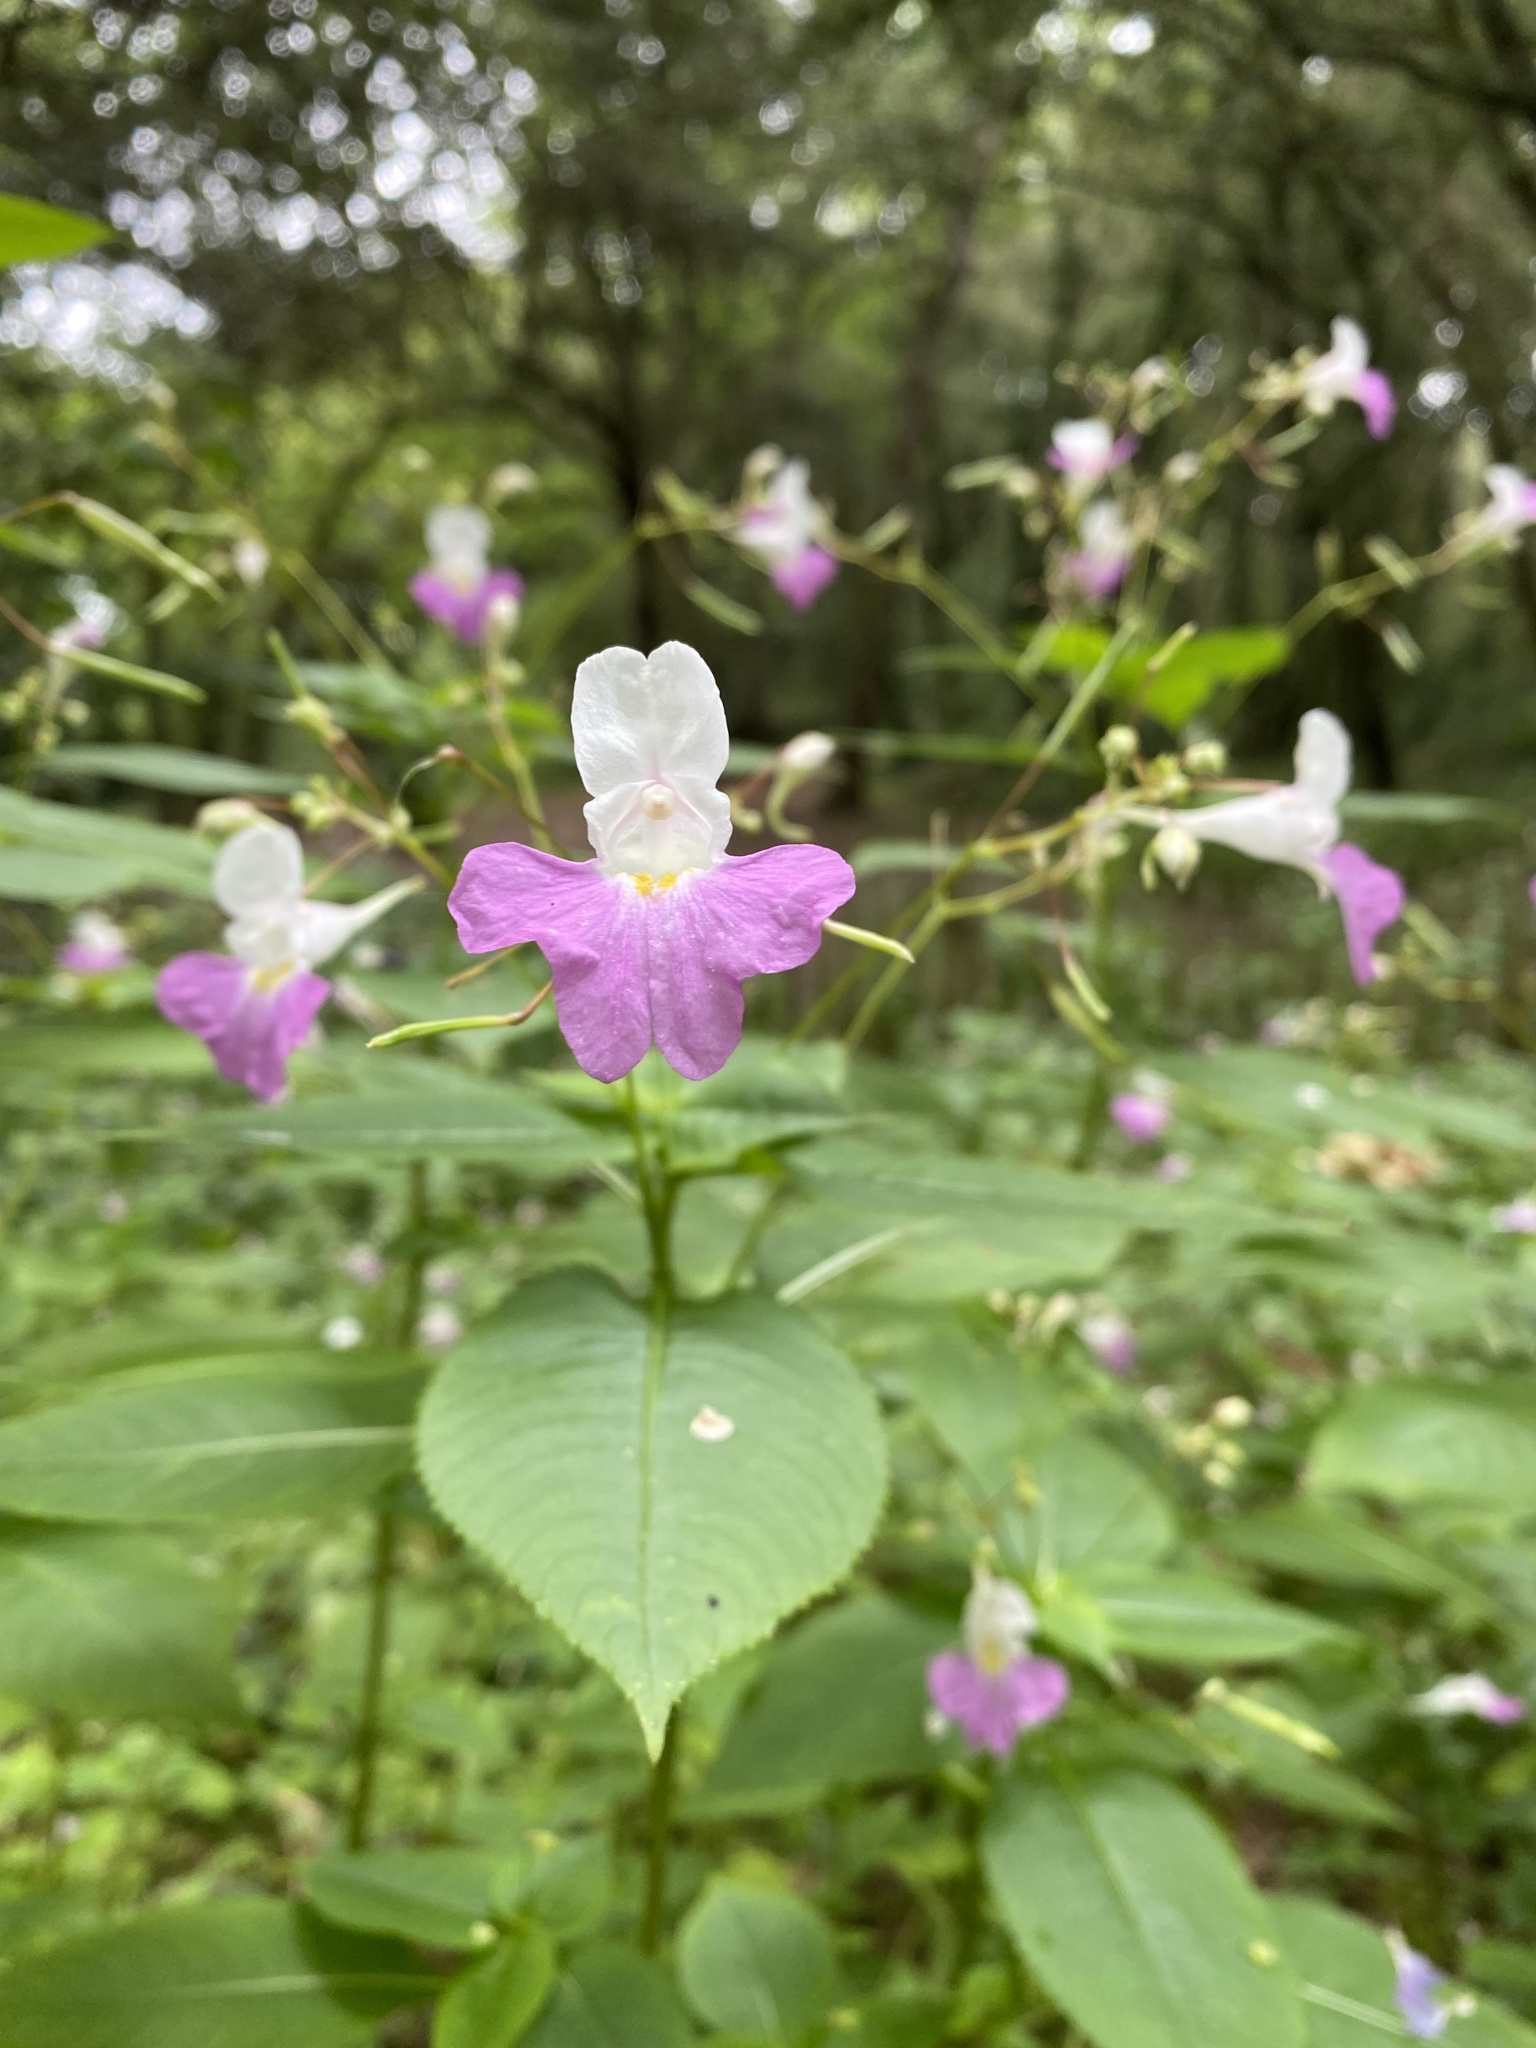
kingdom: Plantae
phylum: Tracheophyta
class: Magnoliopsida
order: Ericales
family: Balsaminaceae
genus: Impatiens
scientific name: Impatiens balfourii
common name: Balfour's touch-me-not
